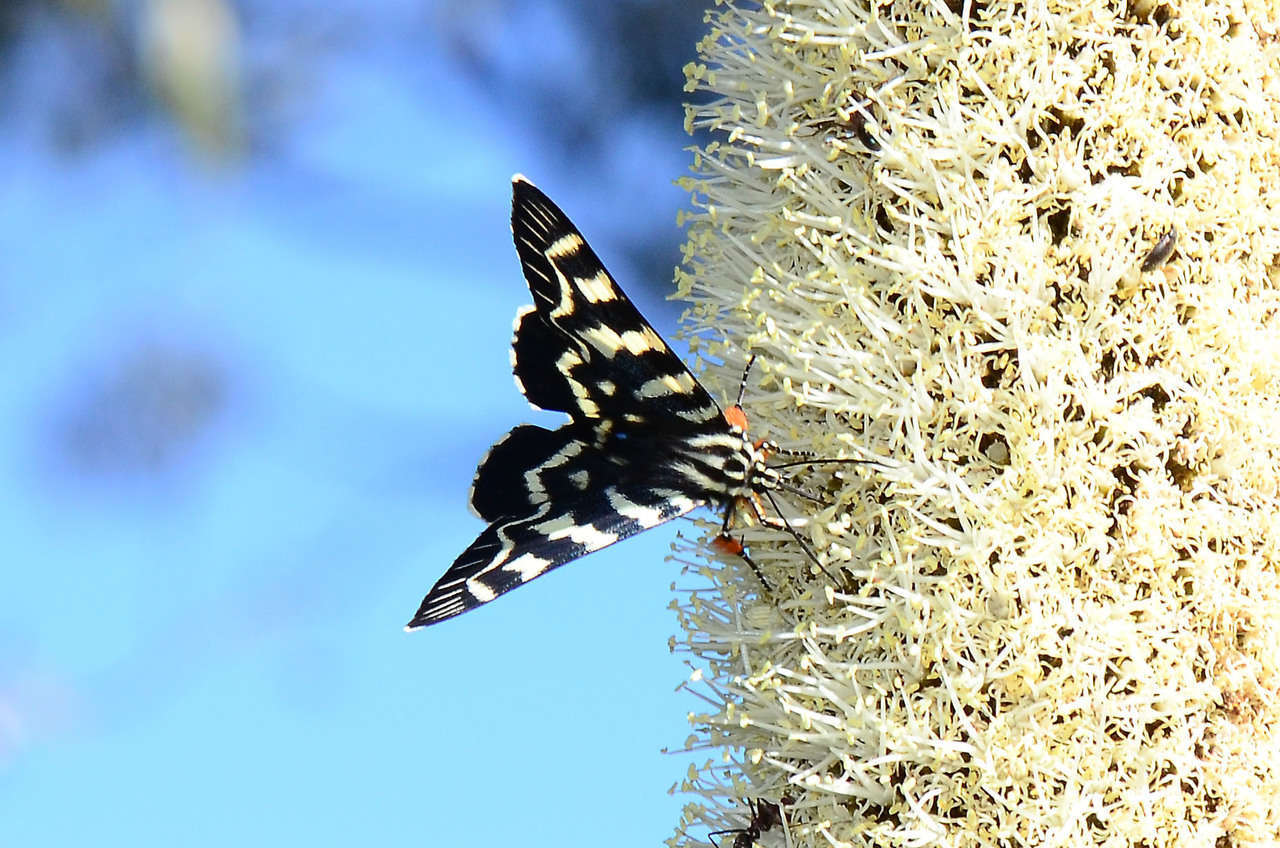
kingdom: Animalia
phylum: Arthropoda
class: Insecta
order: Lepidoptera
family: Noctuidae
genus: Comocrus
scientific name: Comocrus behri
